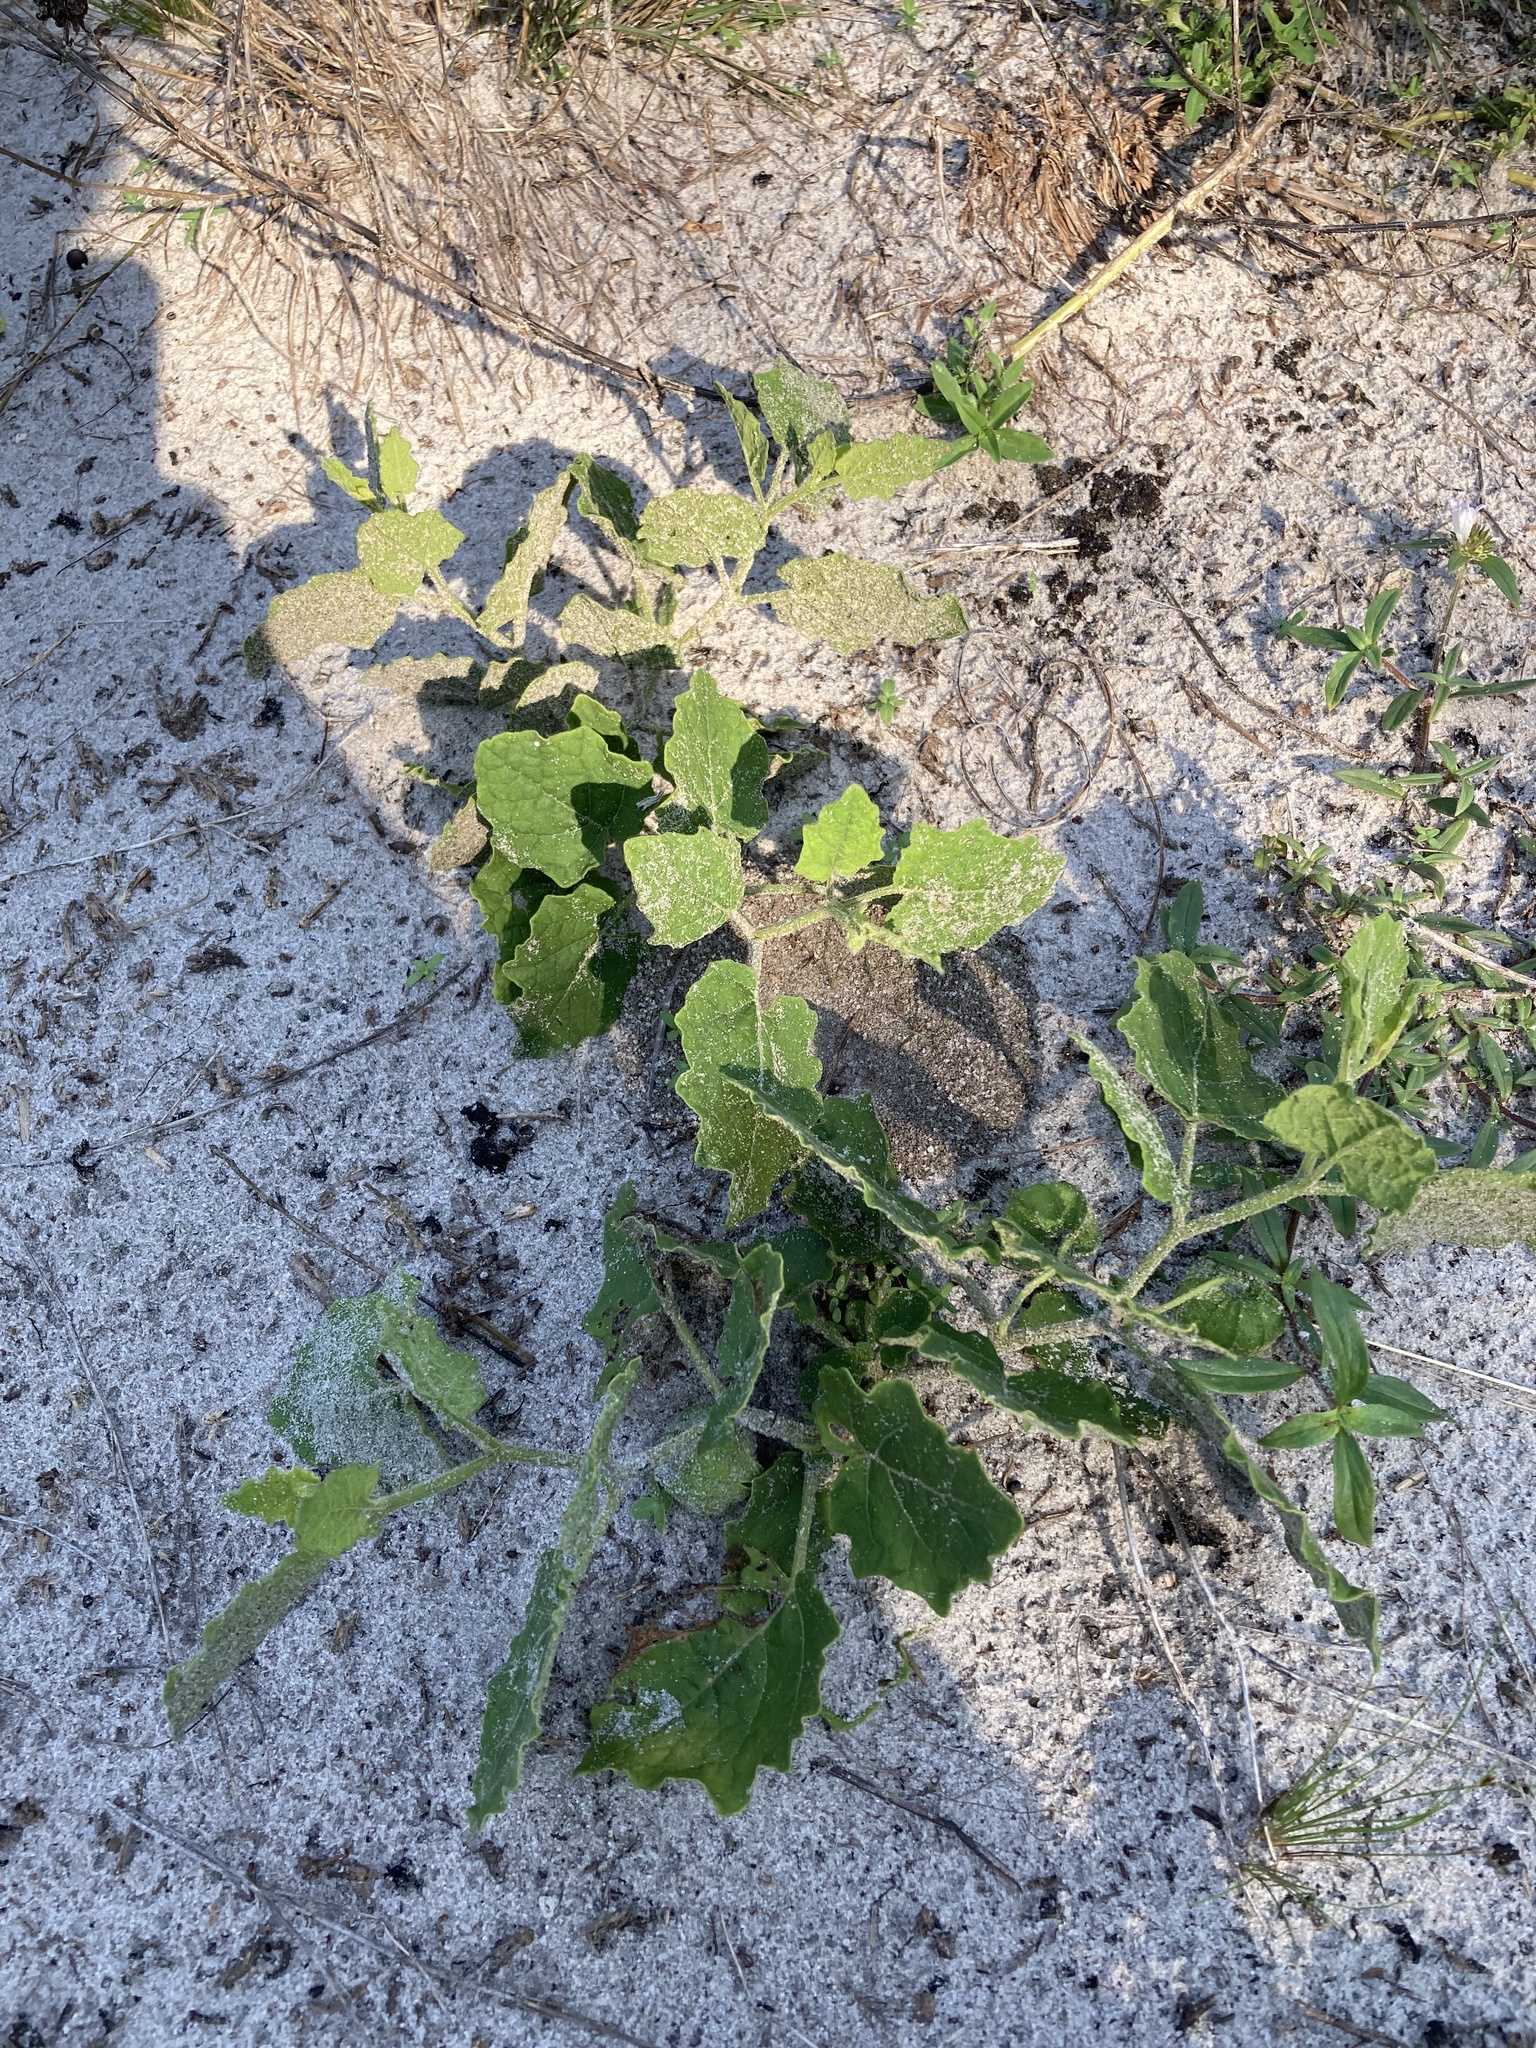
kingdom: Plantae
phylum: Tracheophyta
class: Magnoliopsida
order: Solanales
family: Solanaceae
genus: Physalis
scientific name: Physalis arenicola
